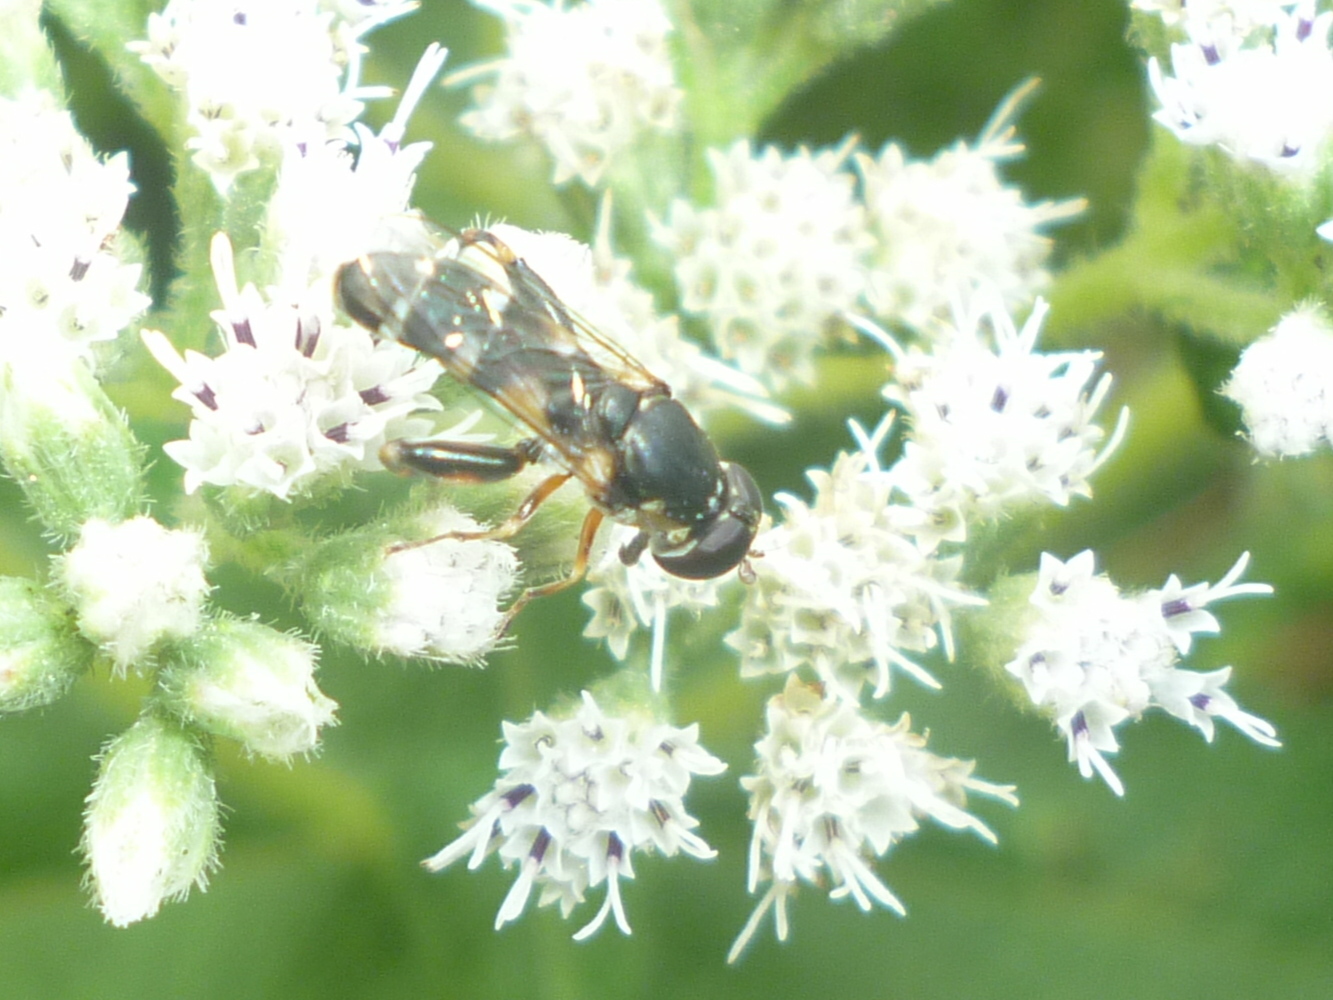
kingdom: Animalia
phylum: Arthropoda
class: Insecta
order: Diptera
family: Syrphidae
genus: Syritta
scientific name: Syritta pipiens
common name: Hover fly
